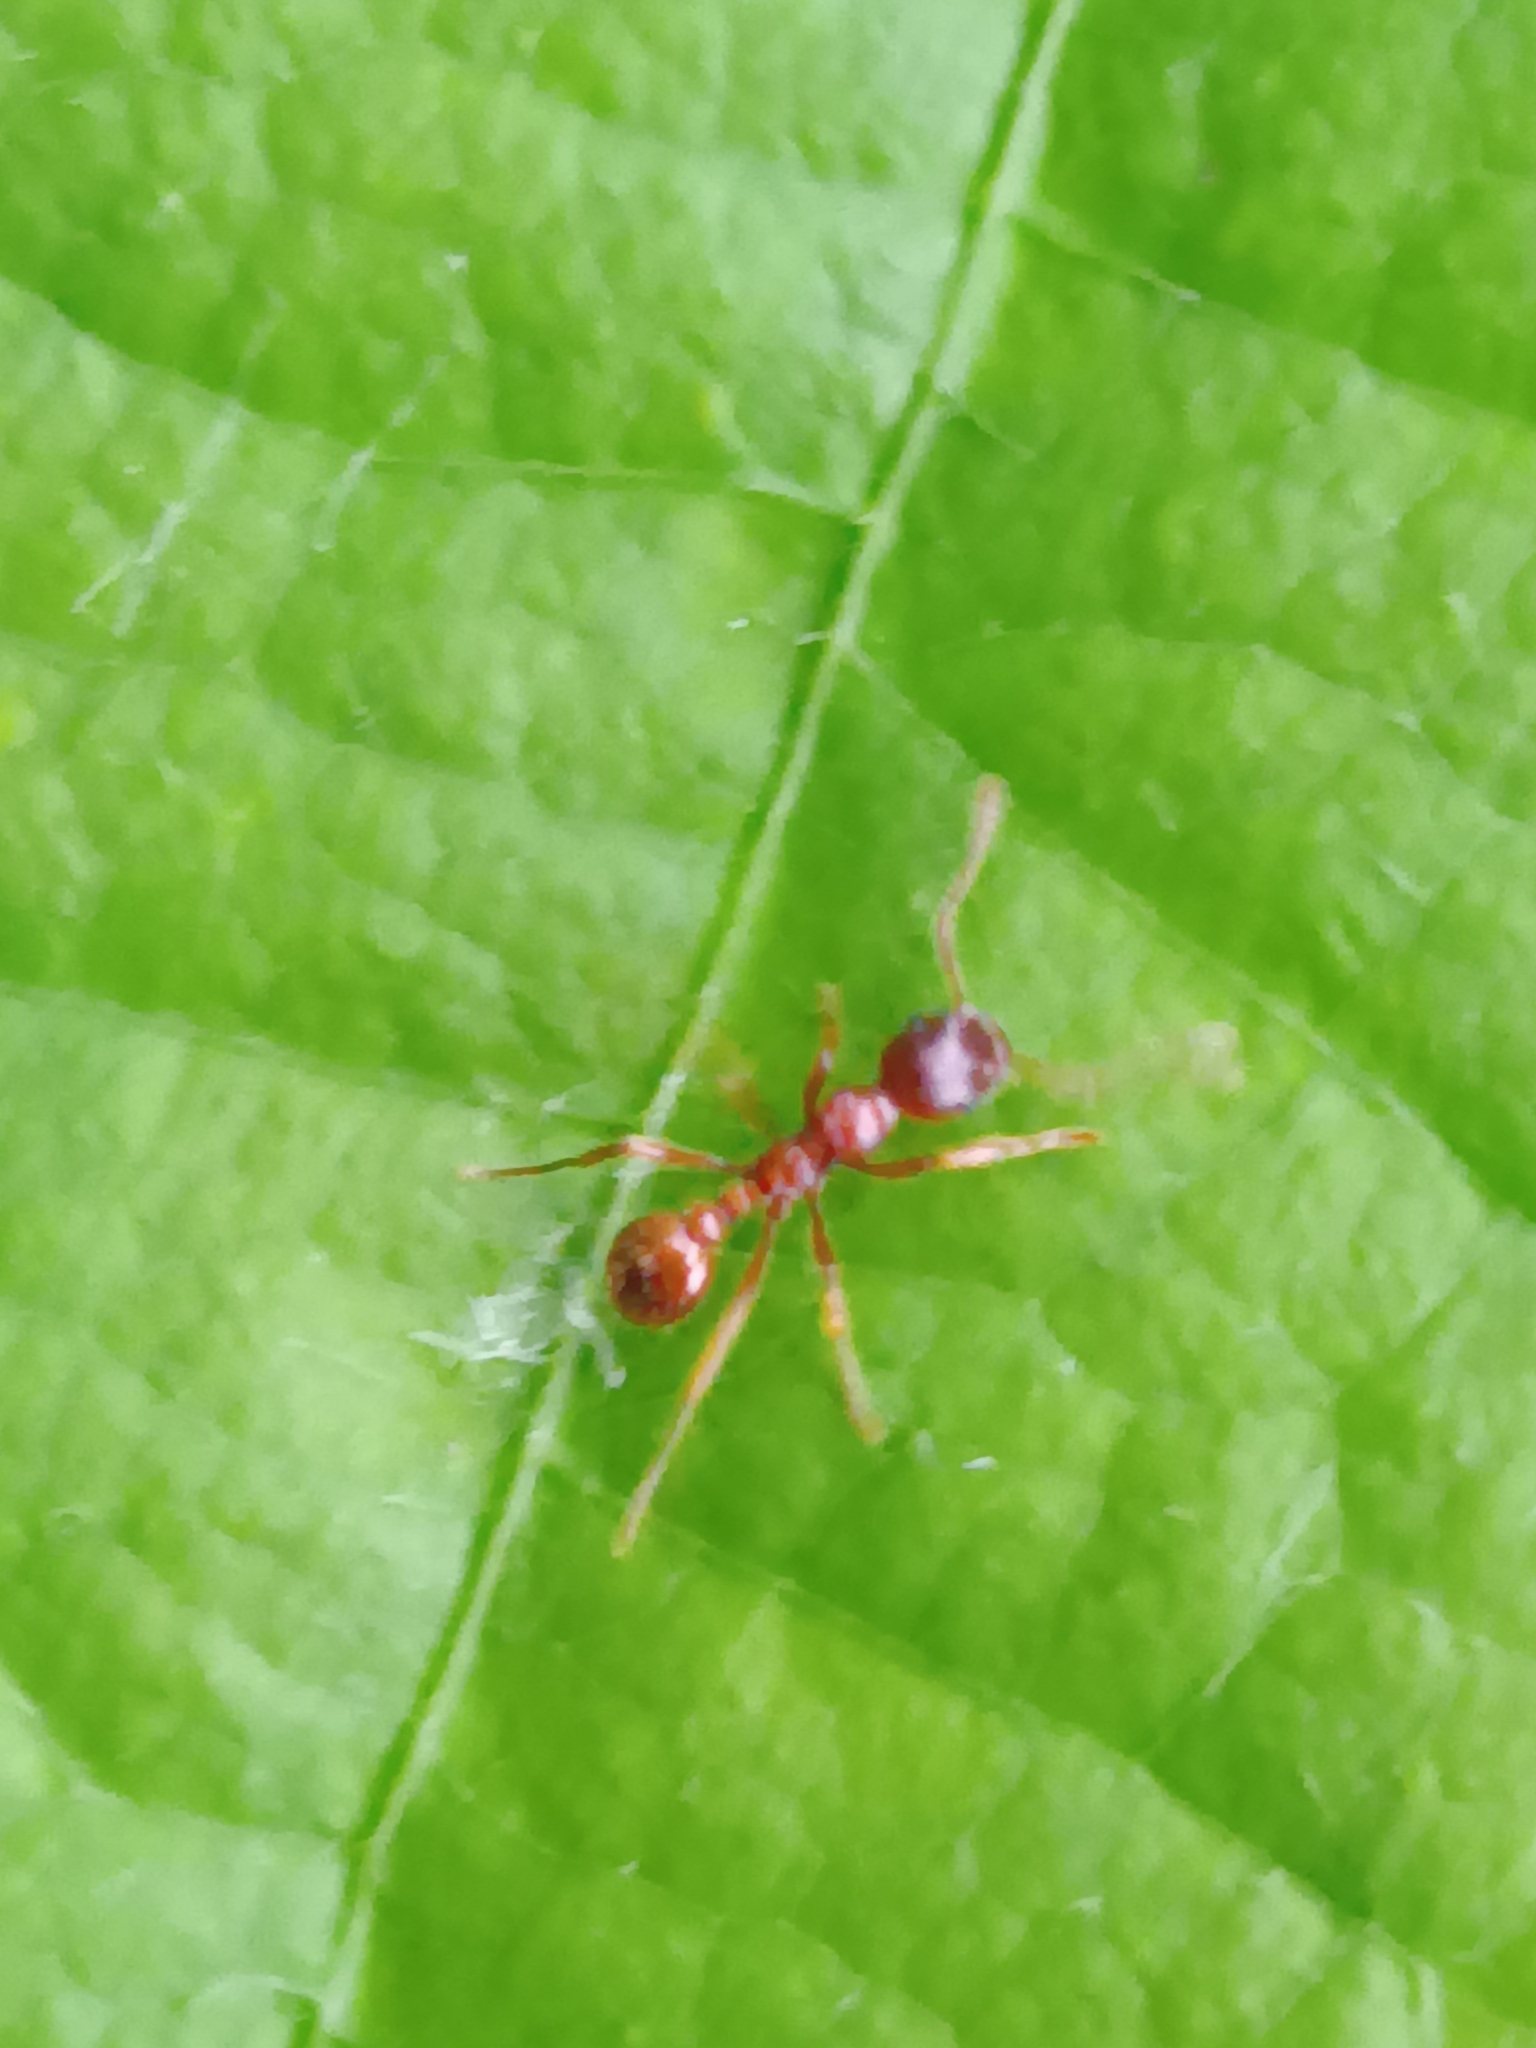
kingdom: Animalia
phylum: Arthropoda
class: Insecta
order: Hymenoptera
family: Formicidae
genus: Myrmica
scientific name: Myrmica rubra
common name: European fire ant
